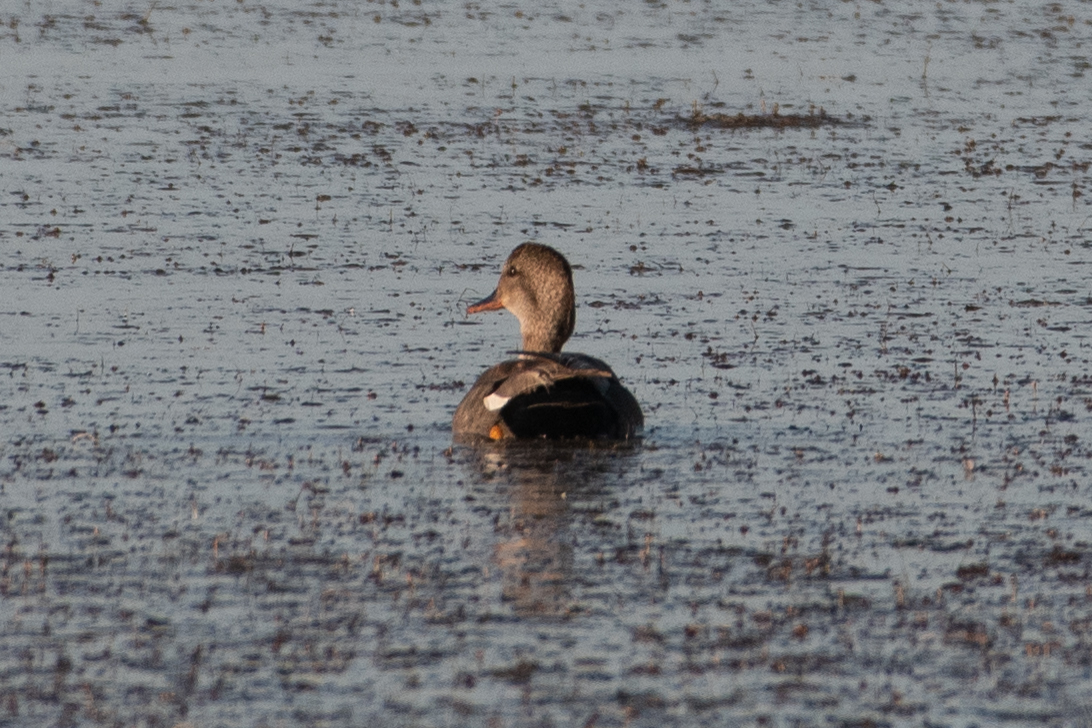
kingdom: Animalia
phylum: Chordata
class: Aves
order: Anseriformes
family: Anatidae
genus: Mareca
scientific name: Mareca strepera
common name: Gadwall
